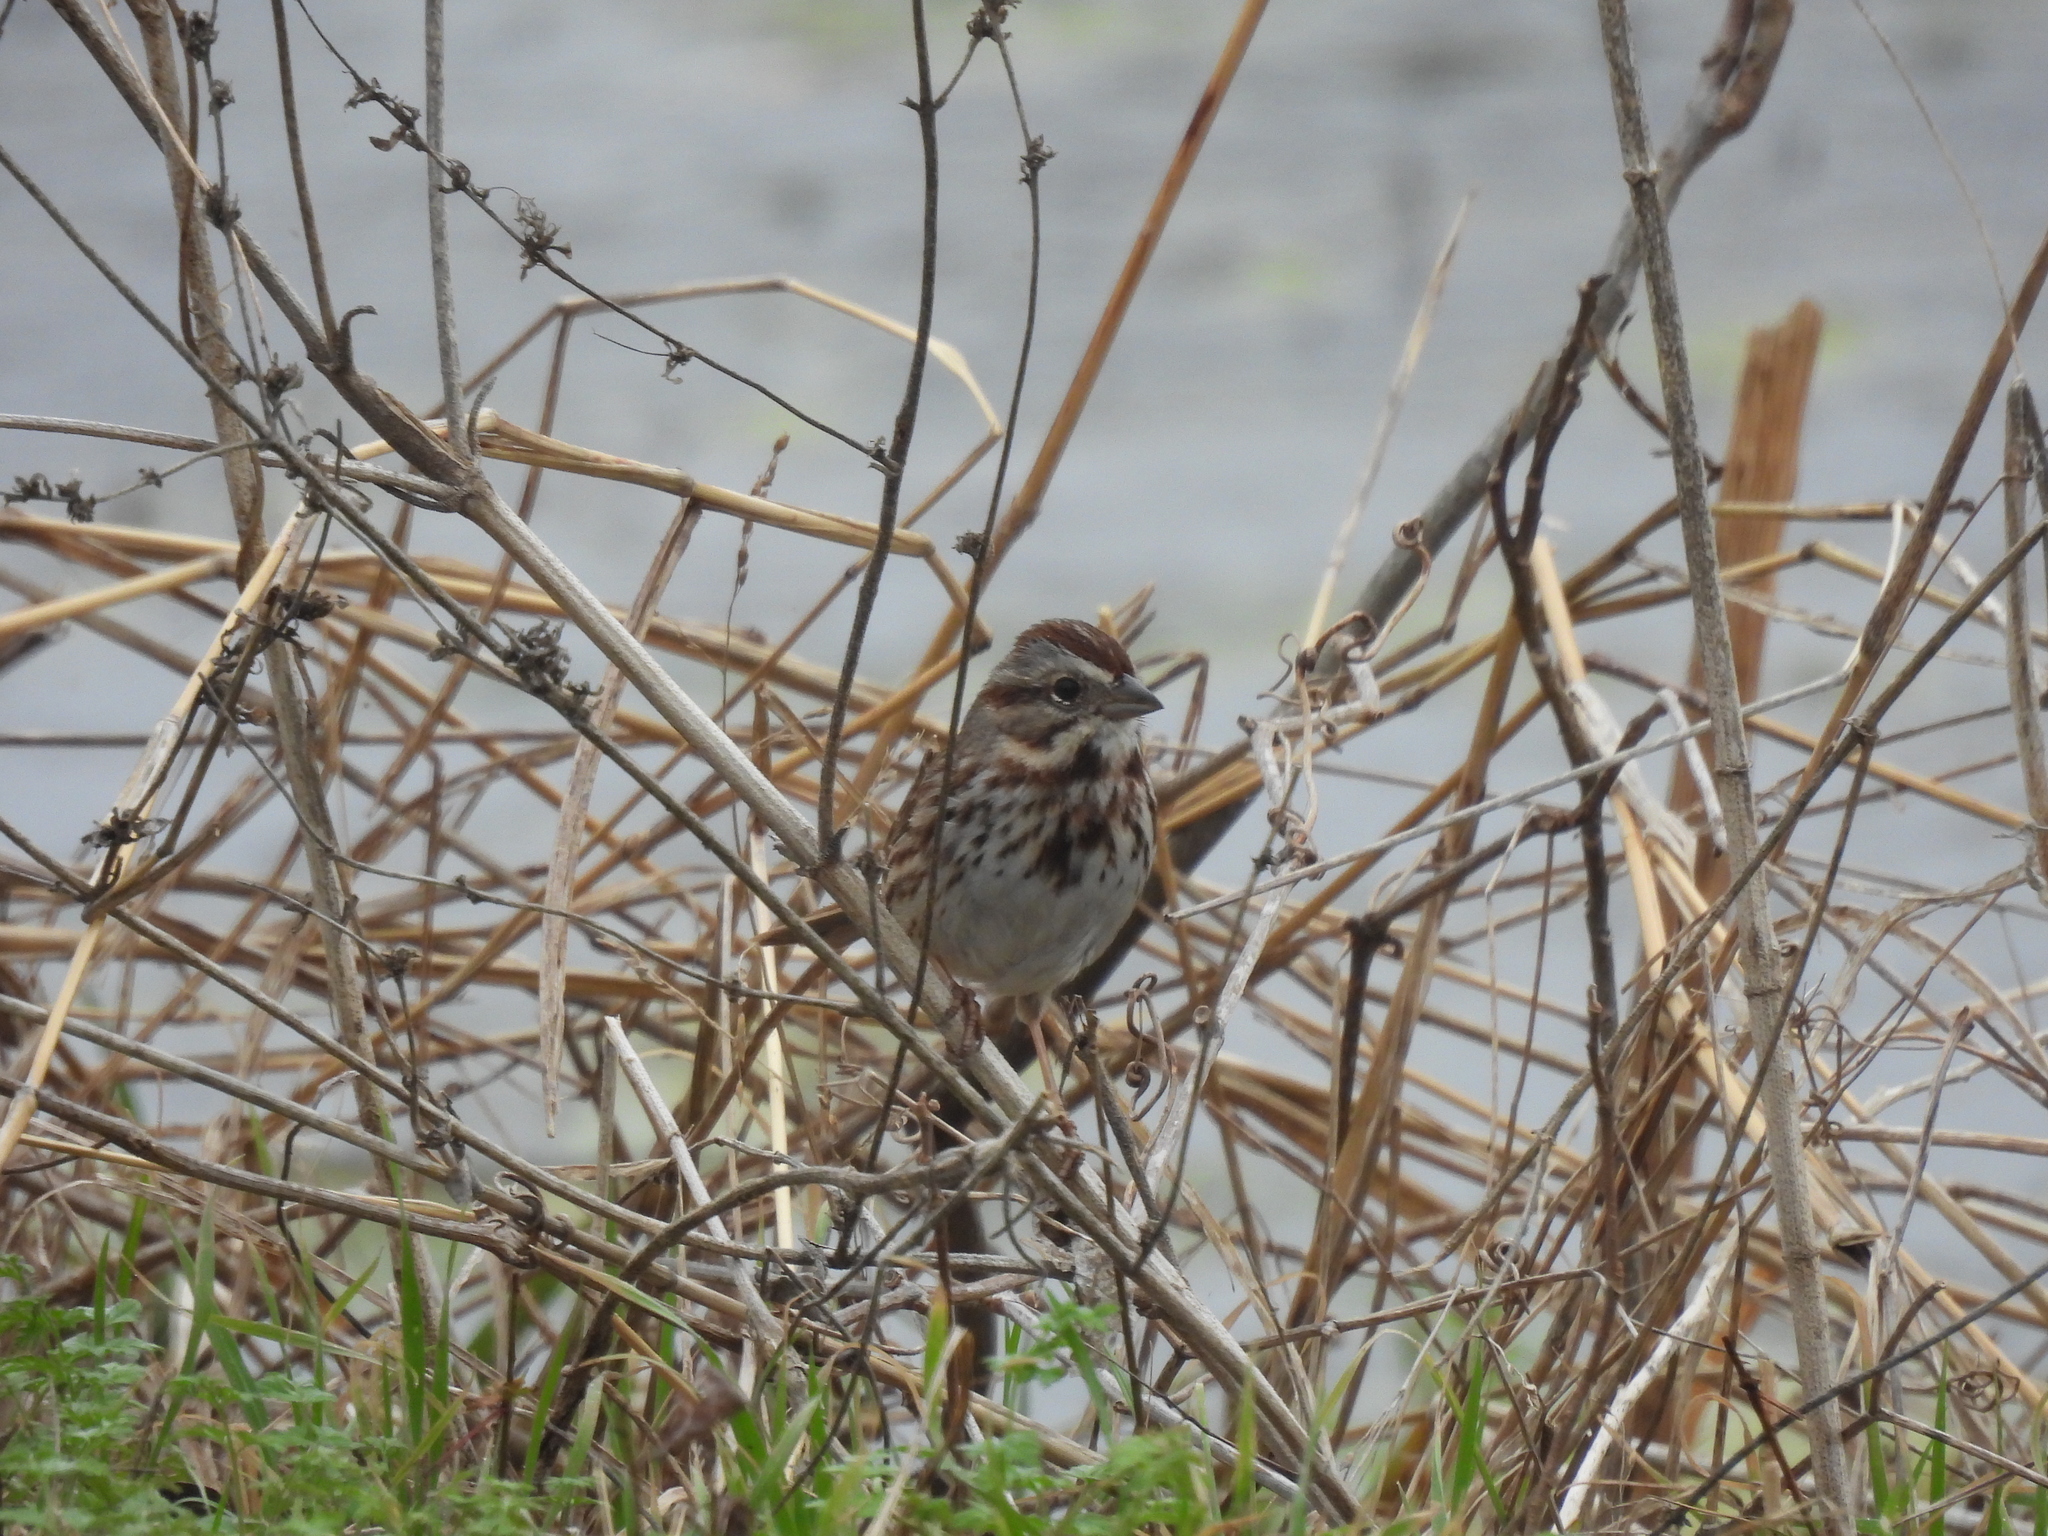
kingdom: Animalia
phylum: Chordata
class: Aves
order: Passeriformes
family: Passerellidae
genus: Melospiza
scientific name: Melospiza melodia
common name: Song sparrow
